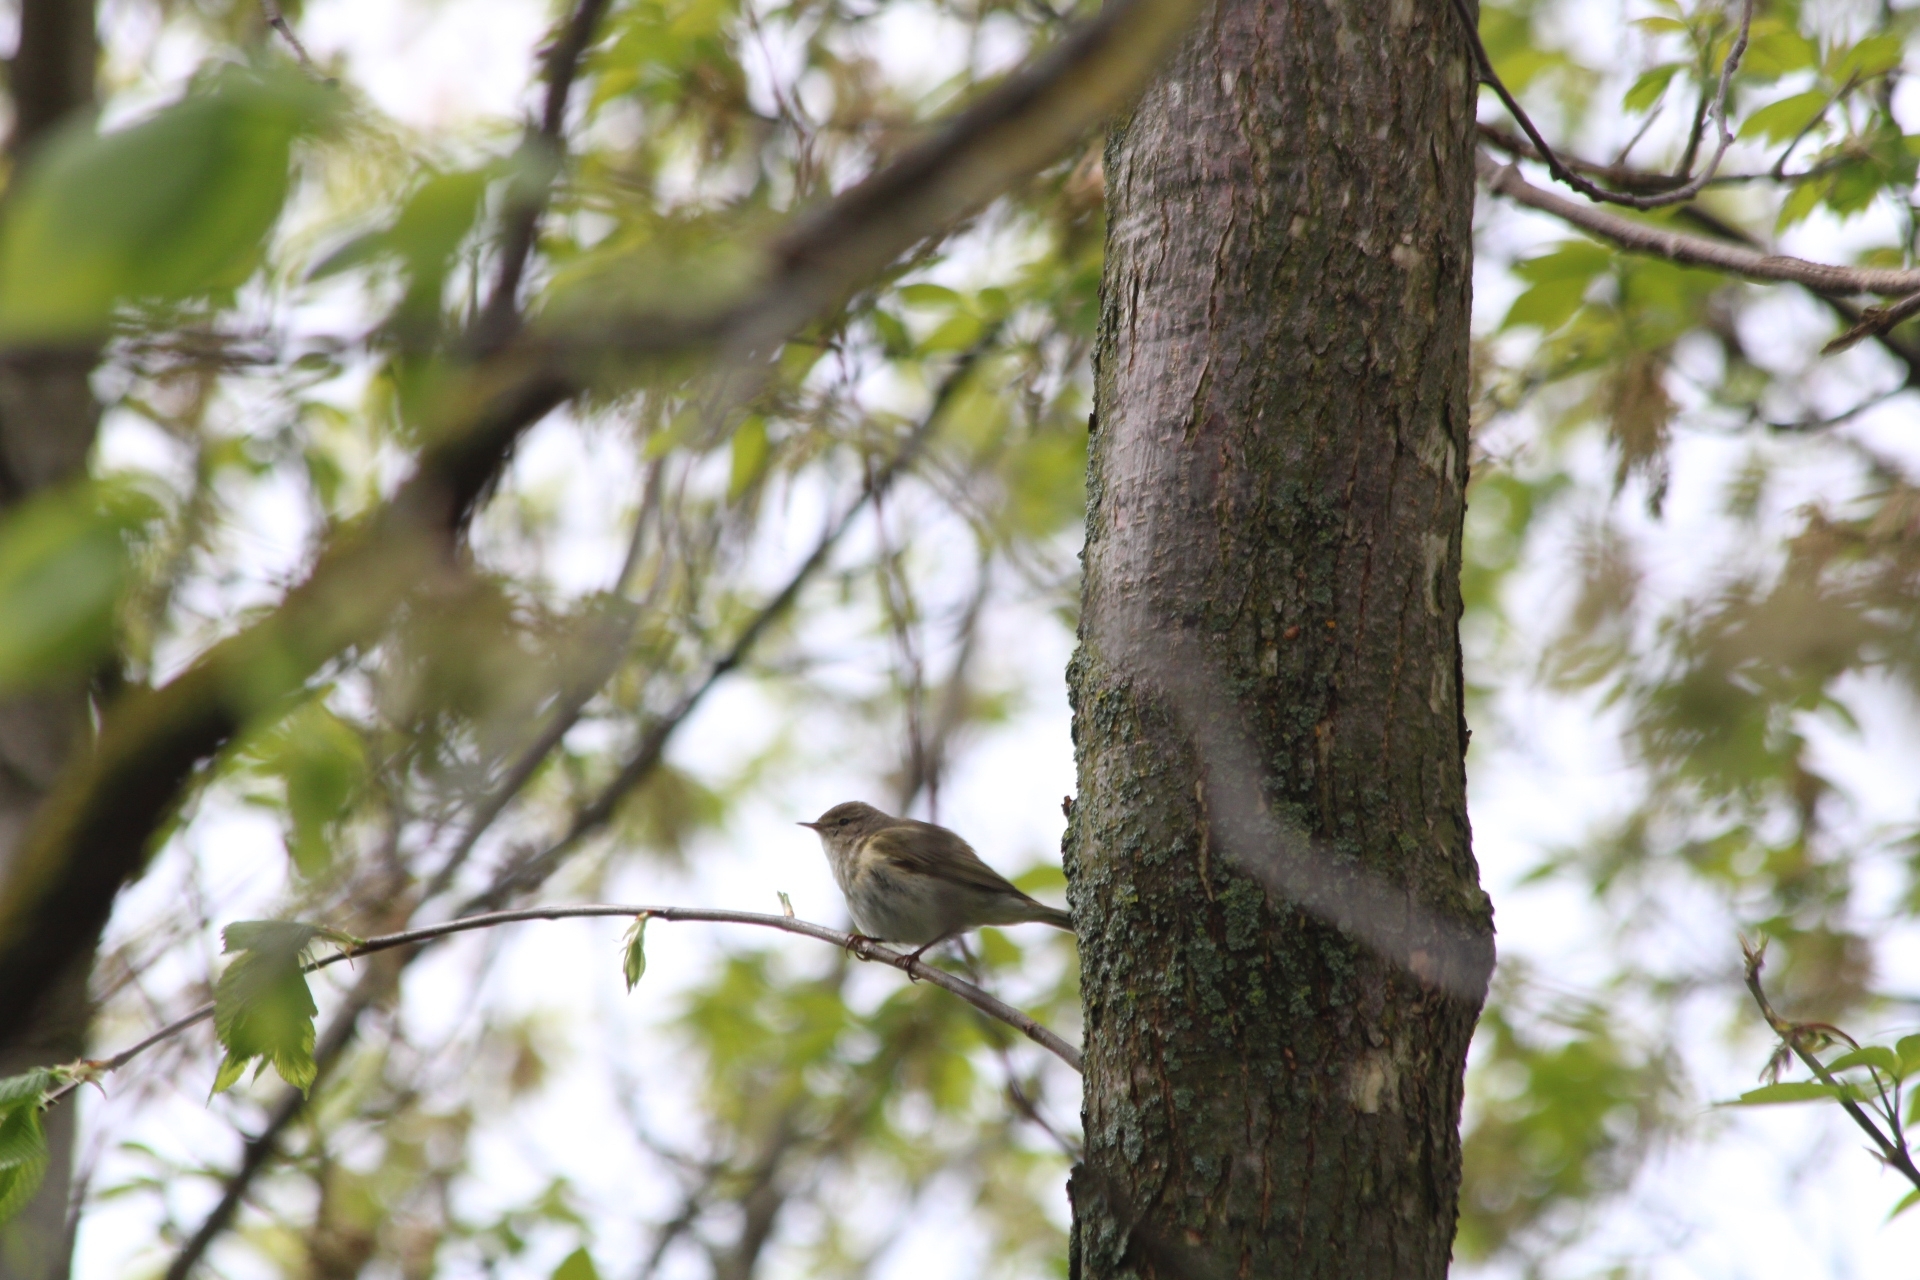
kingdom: Animalia
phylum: Chordata
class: Aves
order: Passeriformes
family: Phylloscopidae
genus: Phylloscopus
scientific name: Phylloscopus collybita
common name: Common chiffchaff
